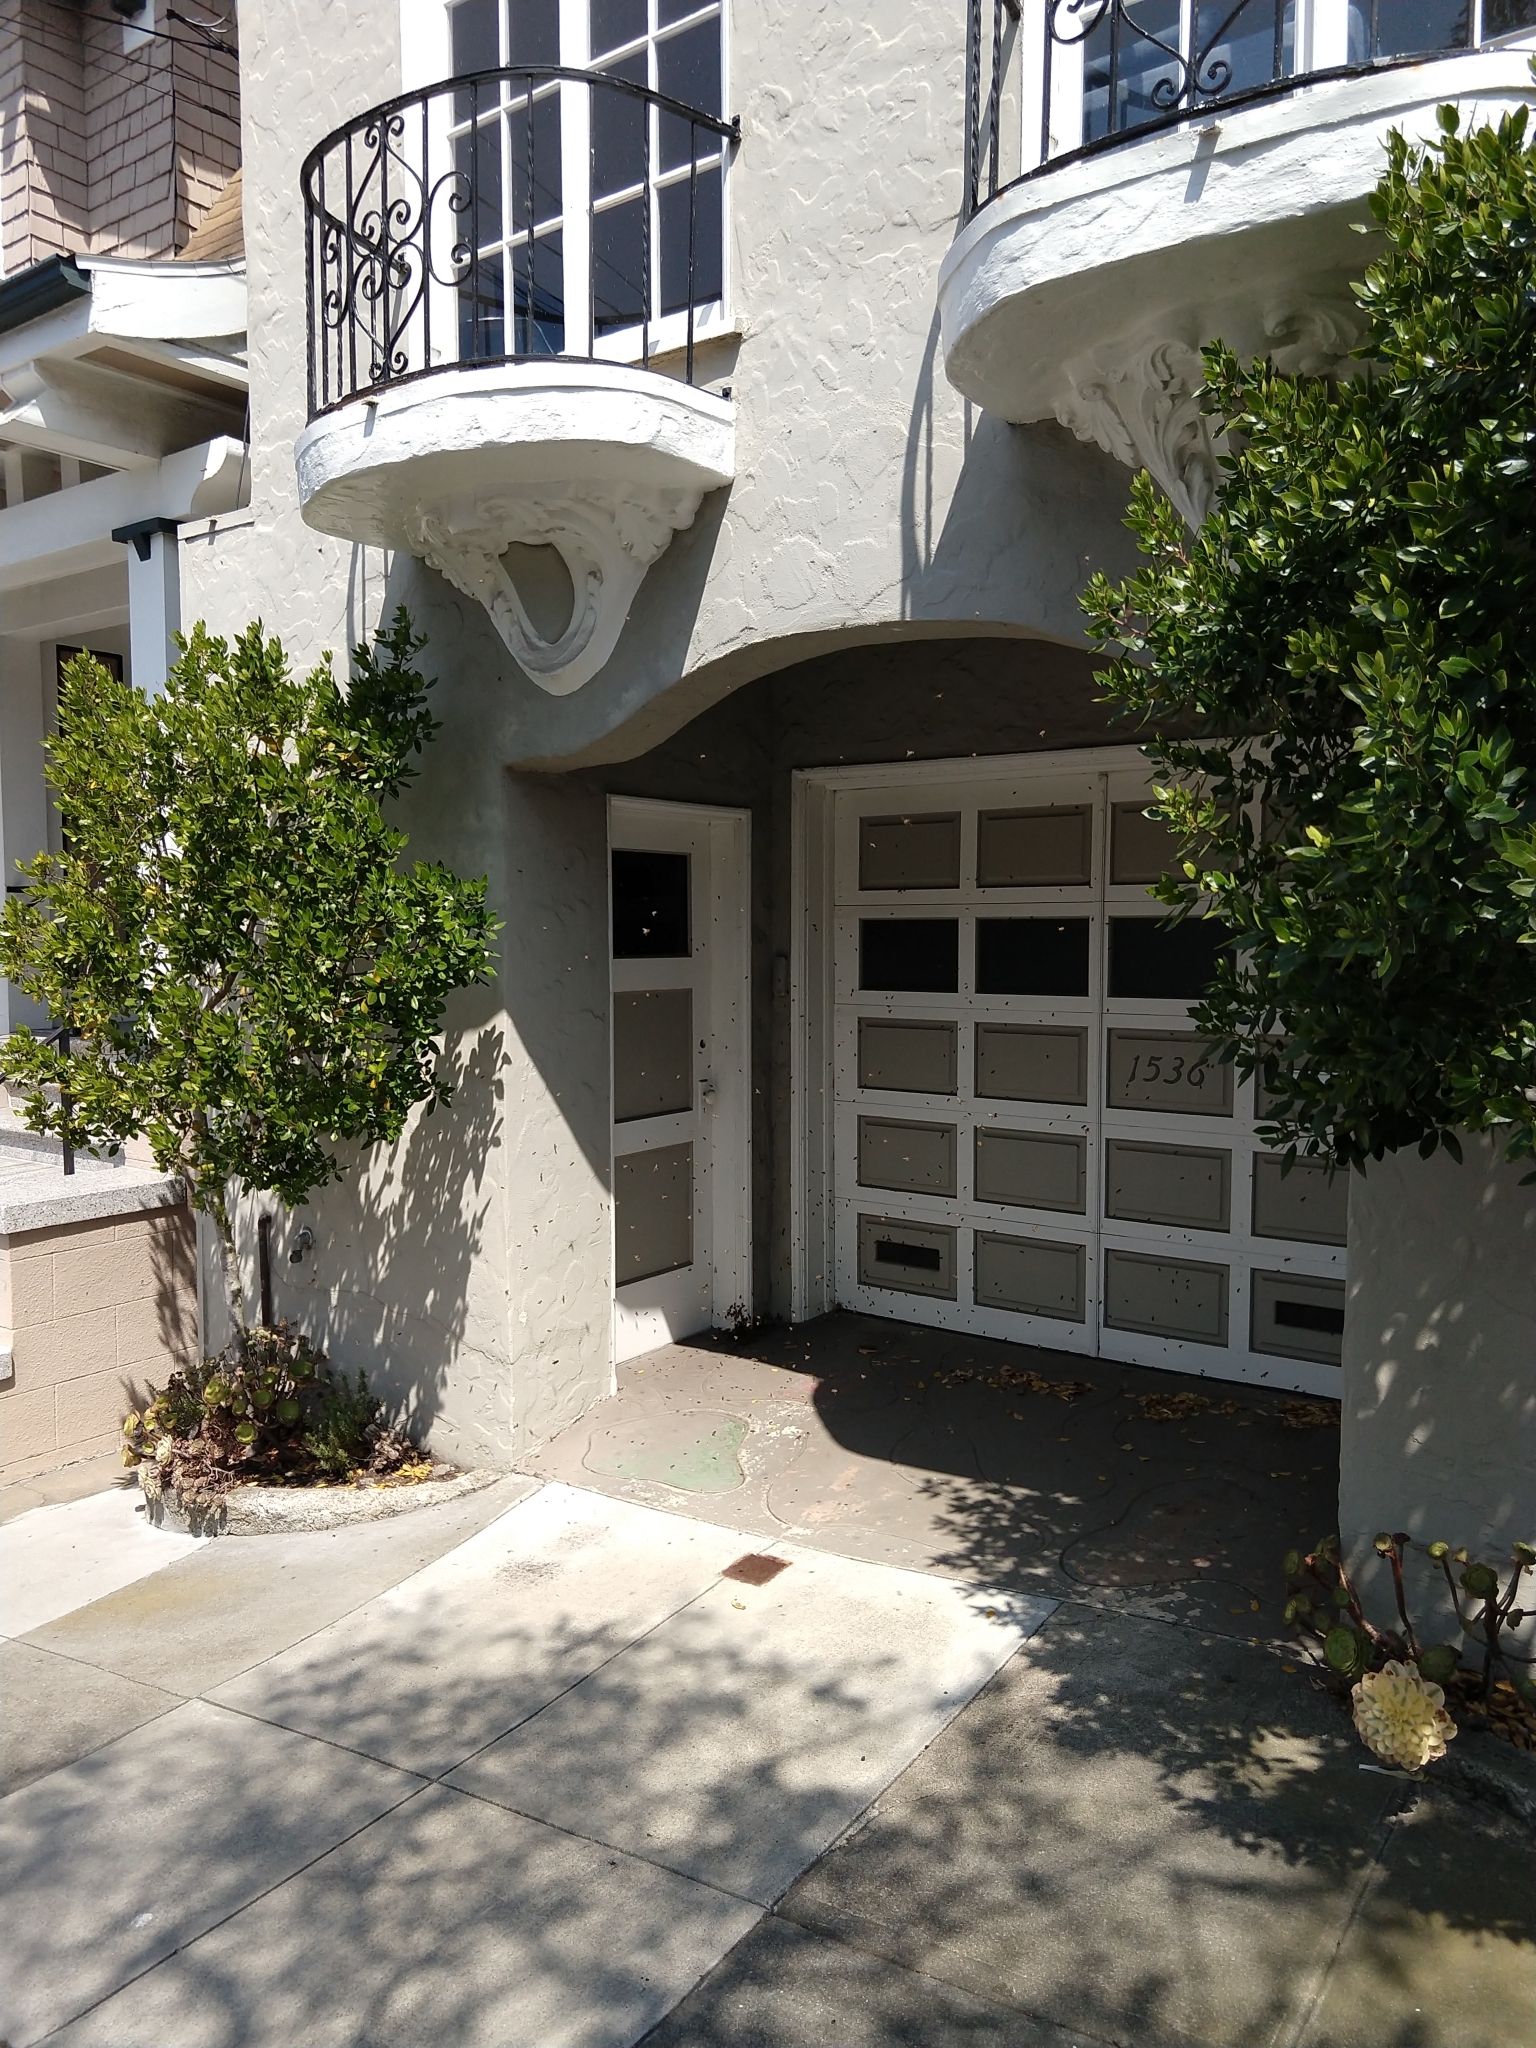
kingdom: Animalia
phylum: Arthropoda
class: Insecta
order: Hymenoptera
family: Apidae
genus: Apis
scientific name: Apis mellifera
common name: Honey bee
